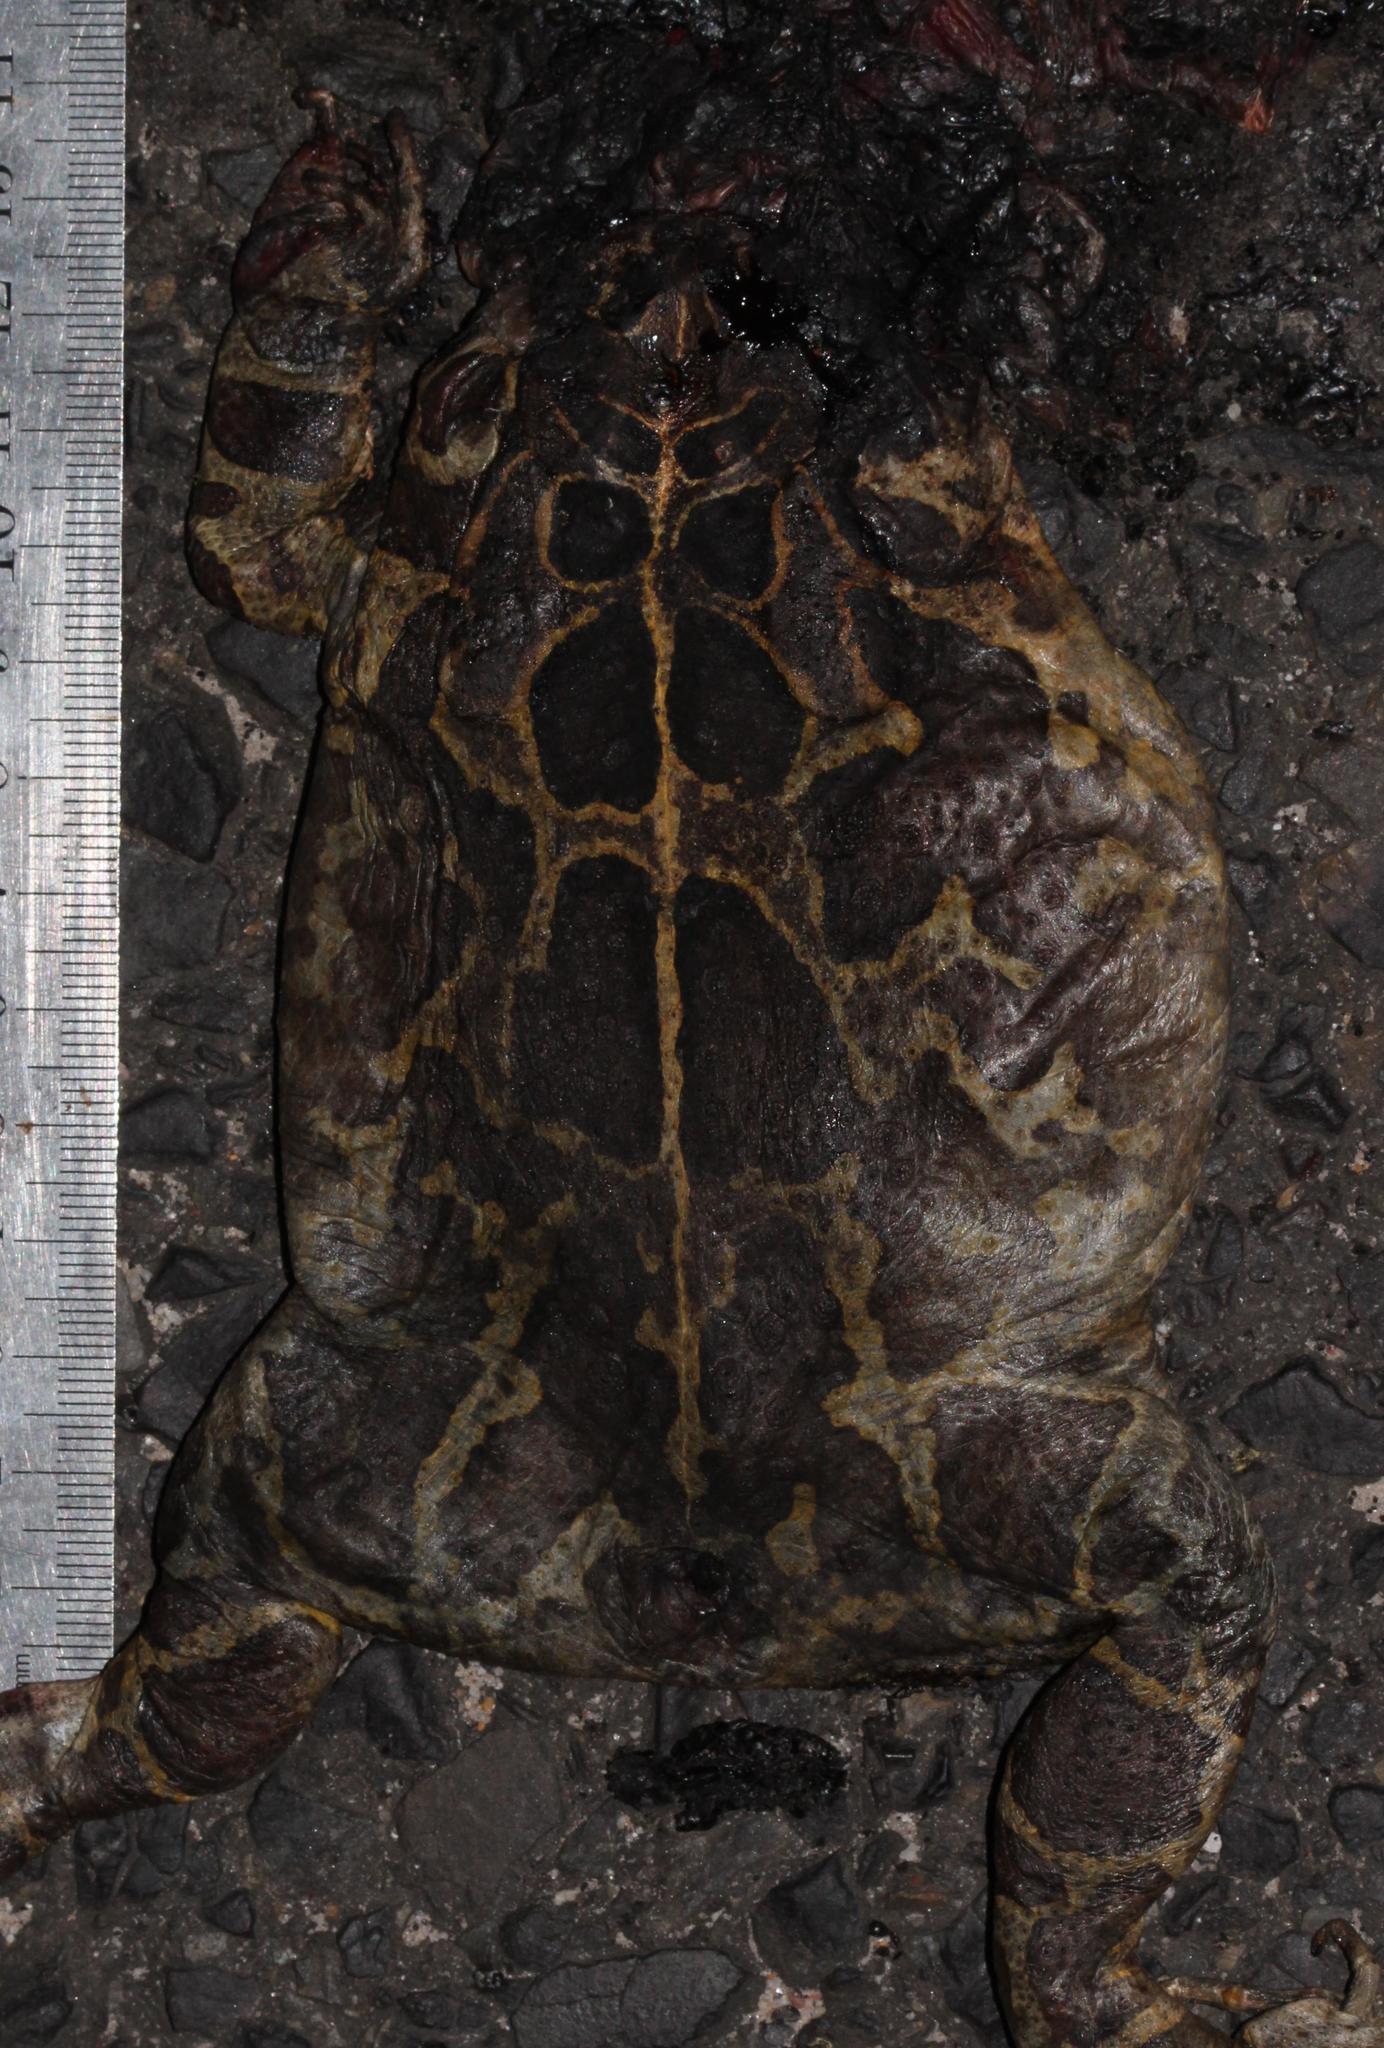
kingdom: Animalia
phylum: Chordata
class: Amphibia
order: Anura
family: Bufonidae
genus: Sclerophrys
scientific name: Sclerophrys pantherina
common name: Panther toad
